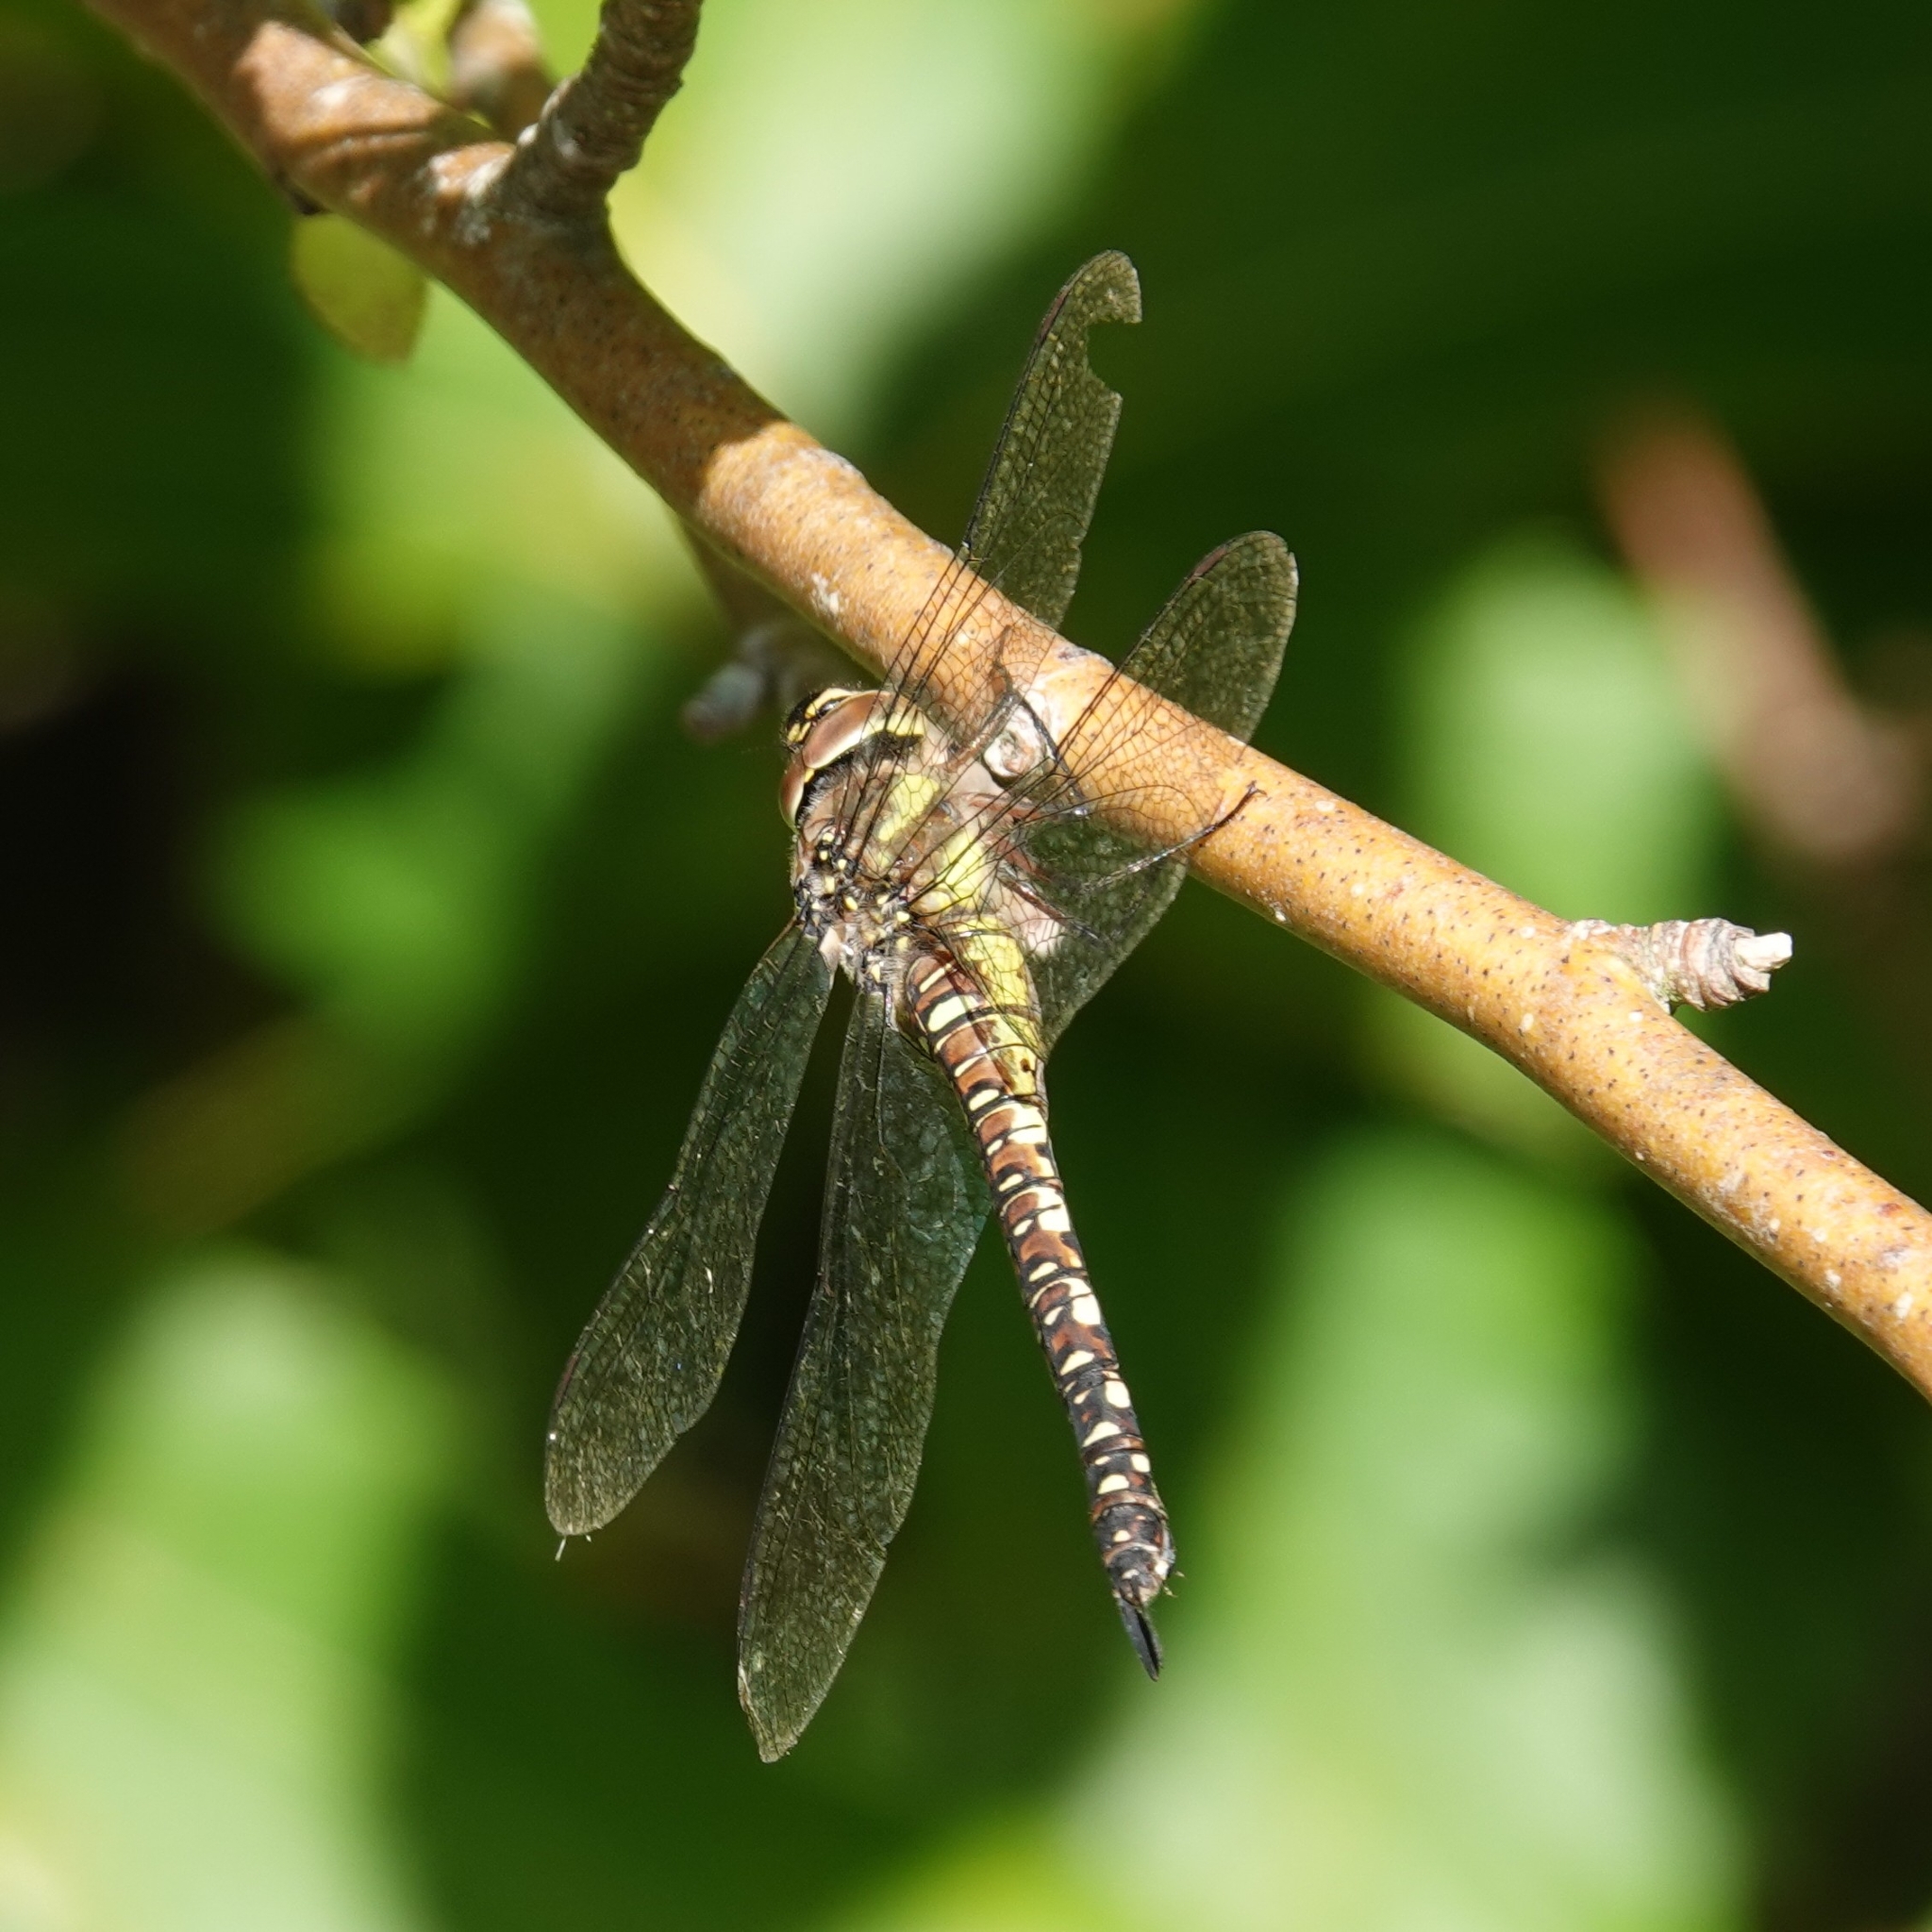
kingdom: Animalia
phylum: Arthropoda
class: Insecta
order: Odonata
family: Aeshnidae
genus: Aeshna
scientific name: Aeshna mixta
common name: Migrant hawker
